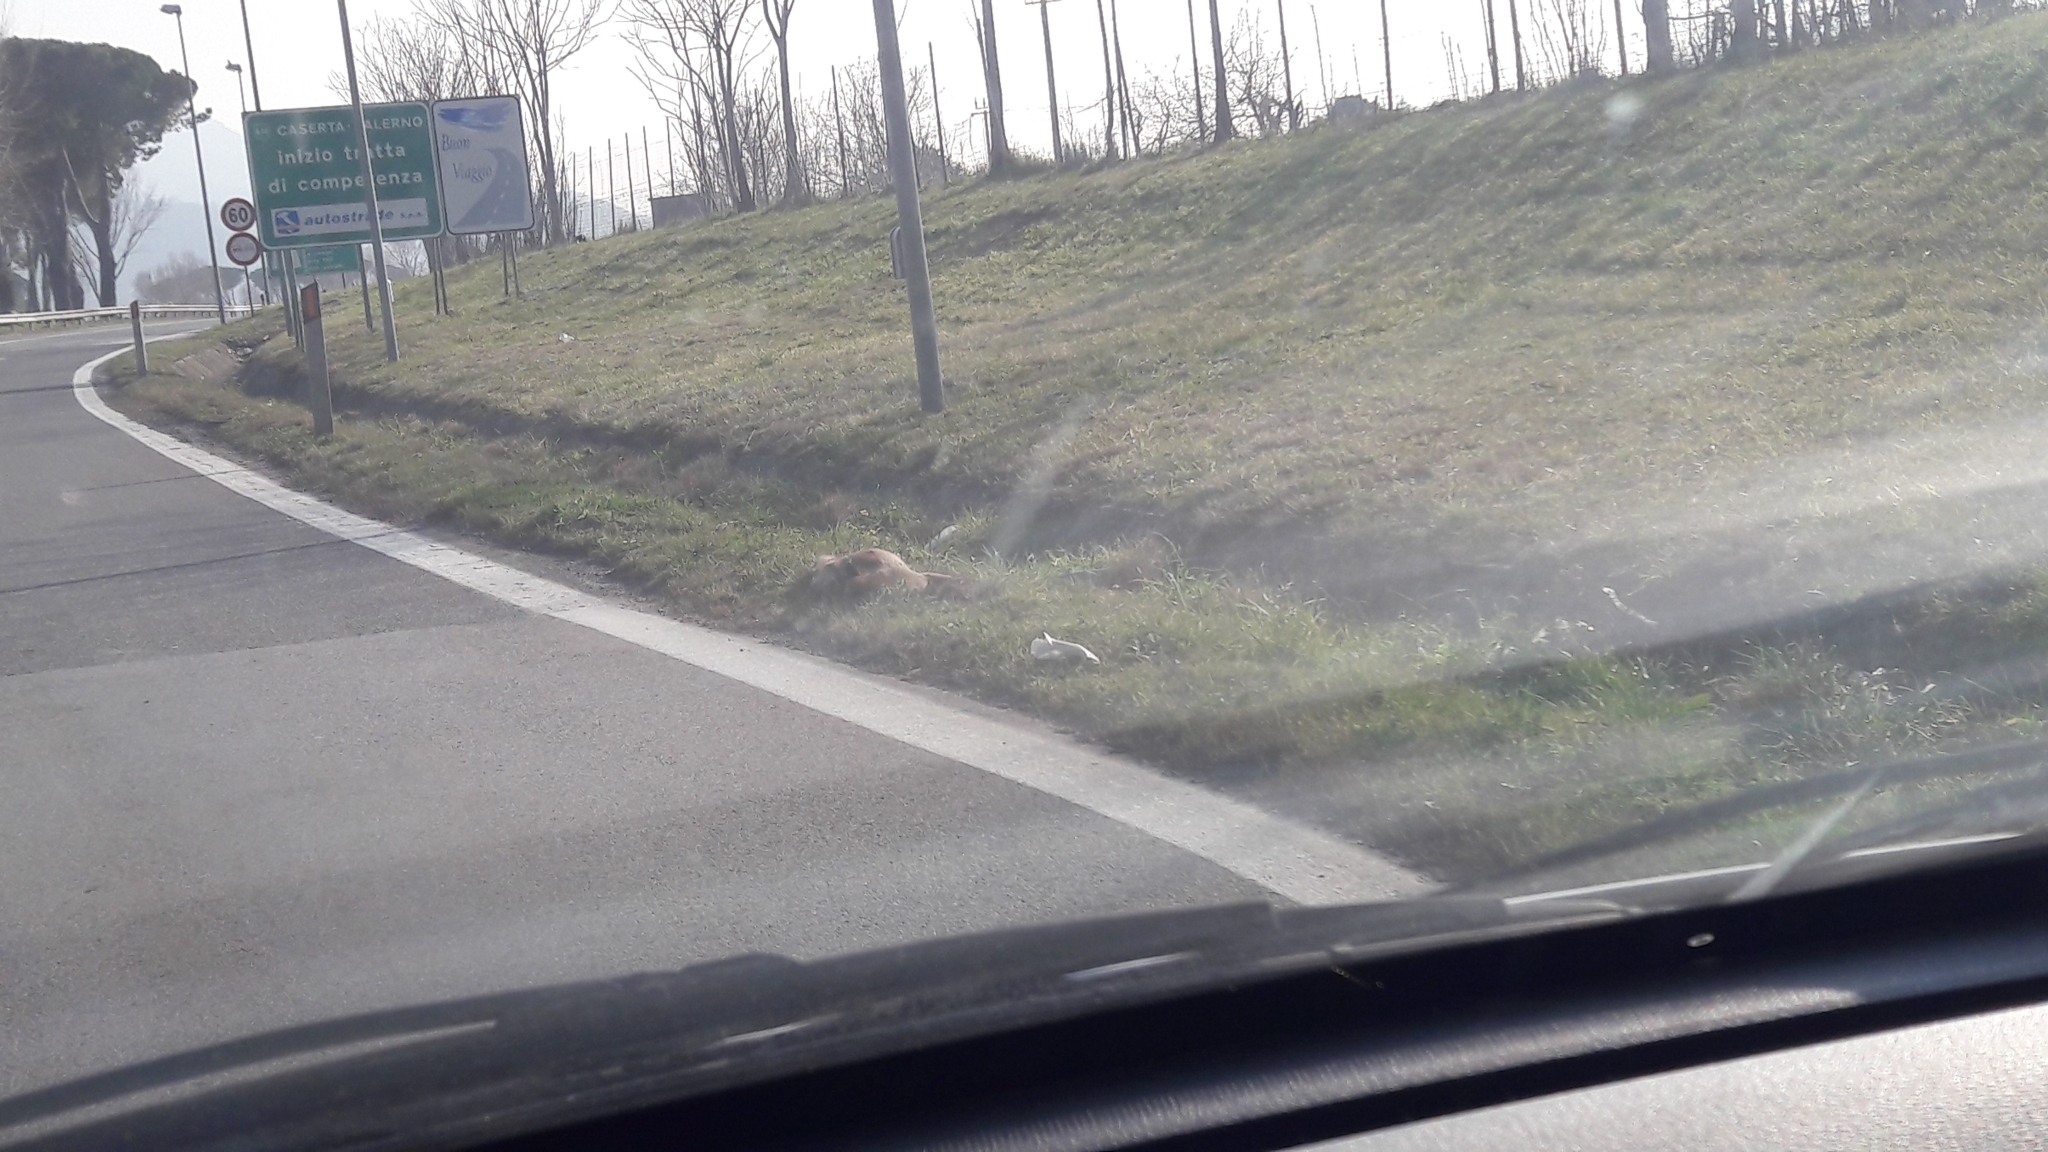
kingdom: Animalia
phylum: Chordata
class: Mammalia
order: Carnivora
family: Canidae
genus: Vulpes
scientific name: Vulpes vulpes
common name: Red fox
